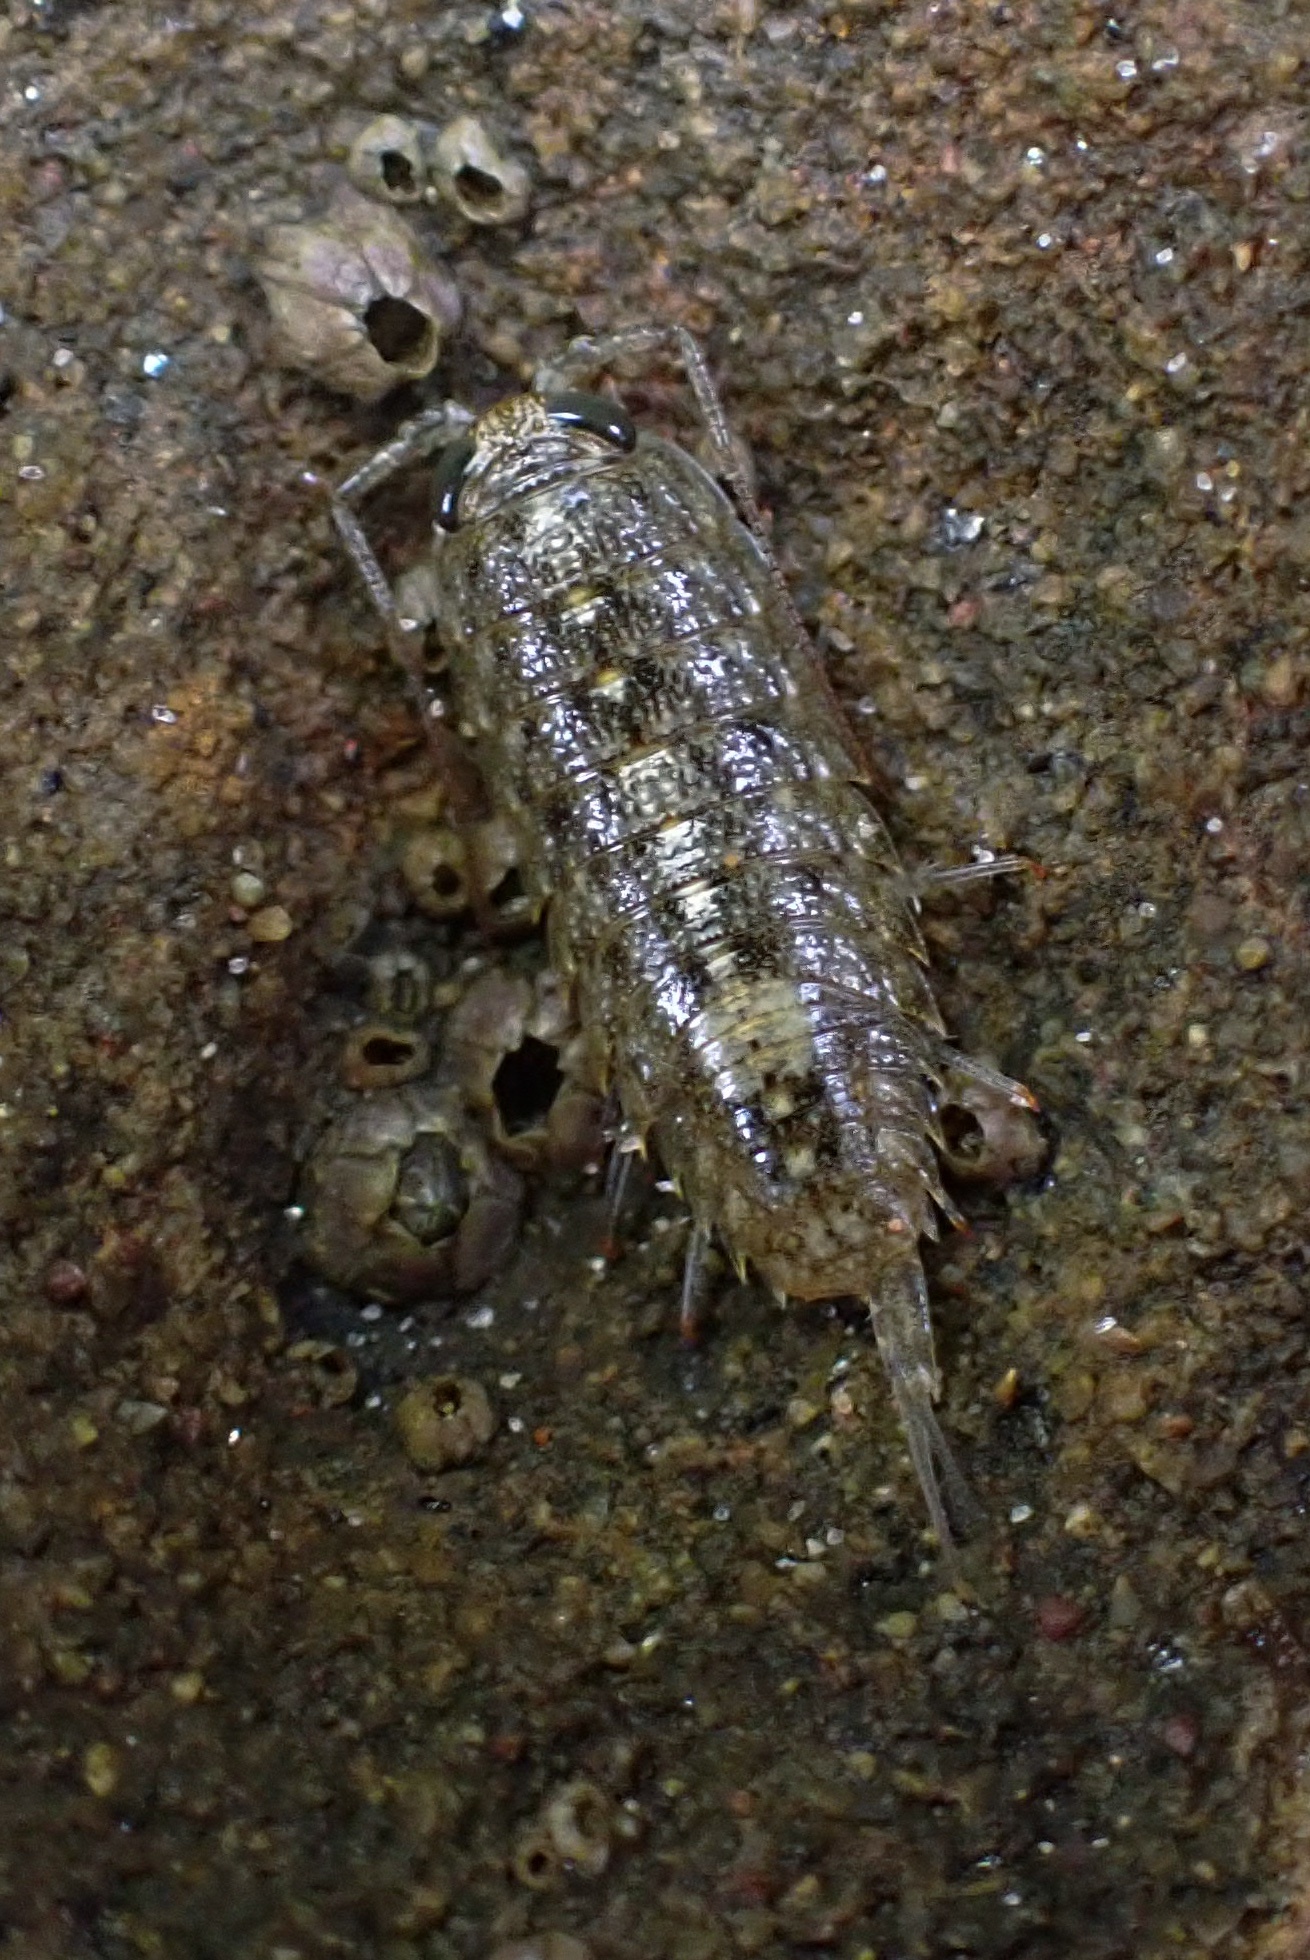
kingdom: Animalia
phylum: Arthropoda
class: Malacostraca
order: Isopoda
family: Ligiidae
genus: Ligia
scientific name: Ligia occidentalis
